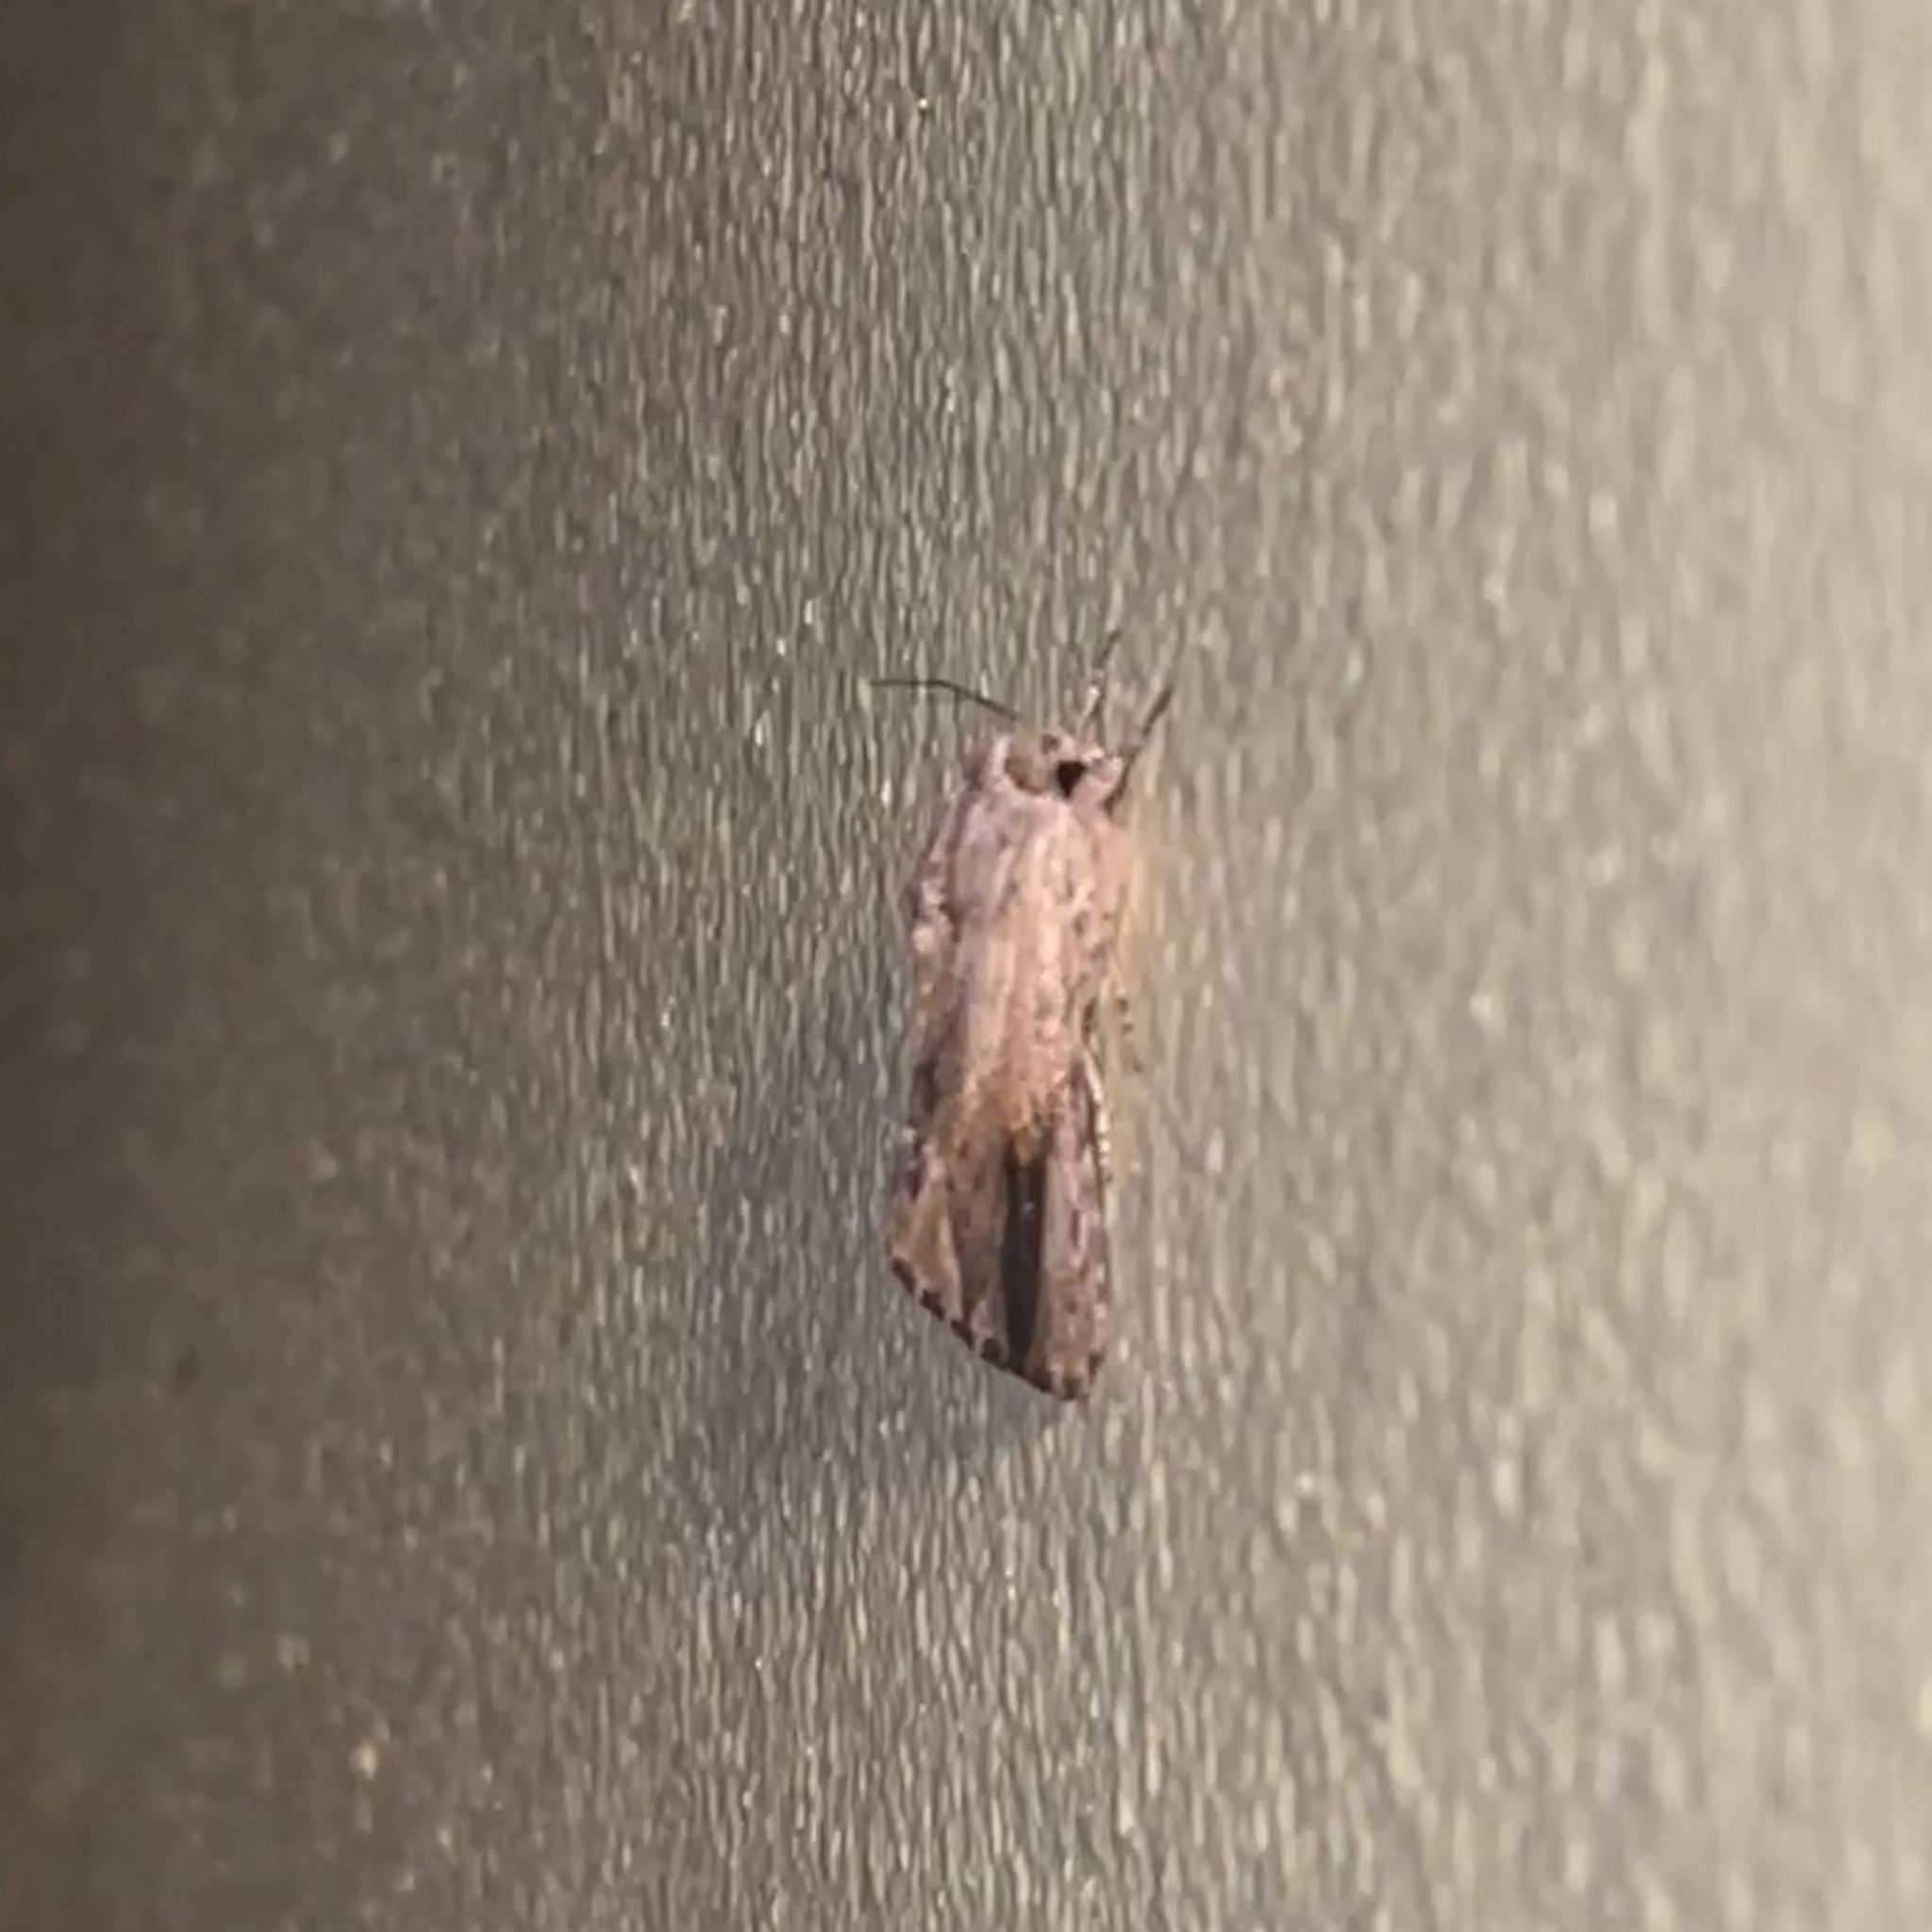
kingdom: Animalia
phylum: Arthropoda
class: Insecta
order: Lepidoptera
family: Noctuidae
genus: Spodoptera
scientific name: Spodoptera eridania
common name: Southern army worm
